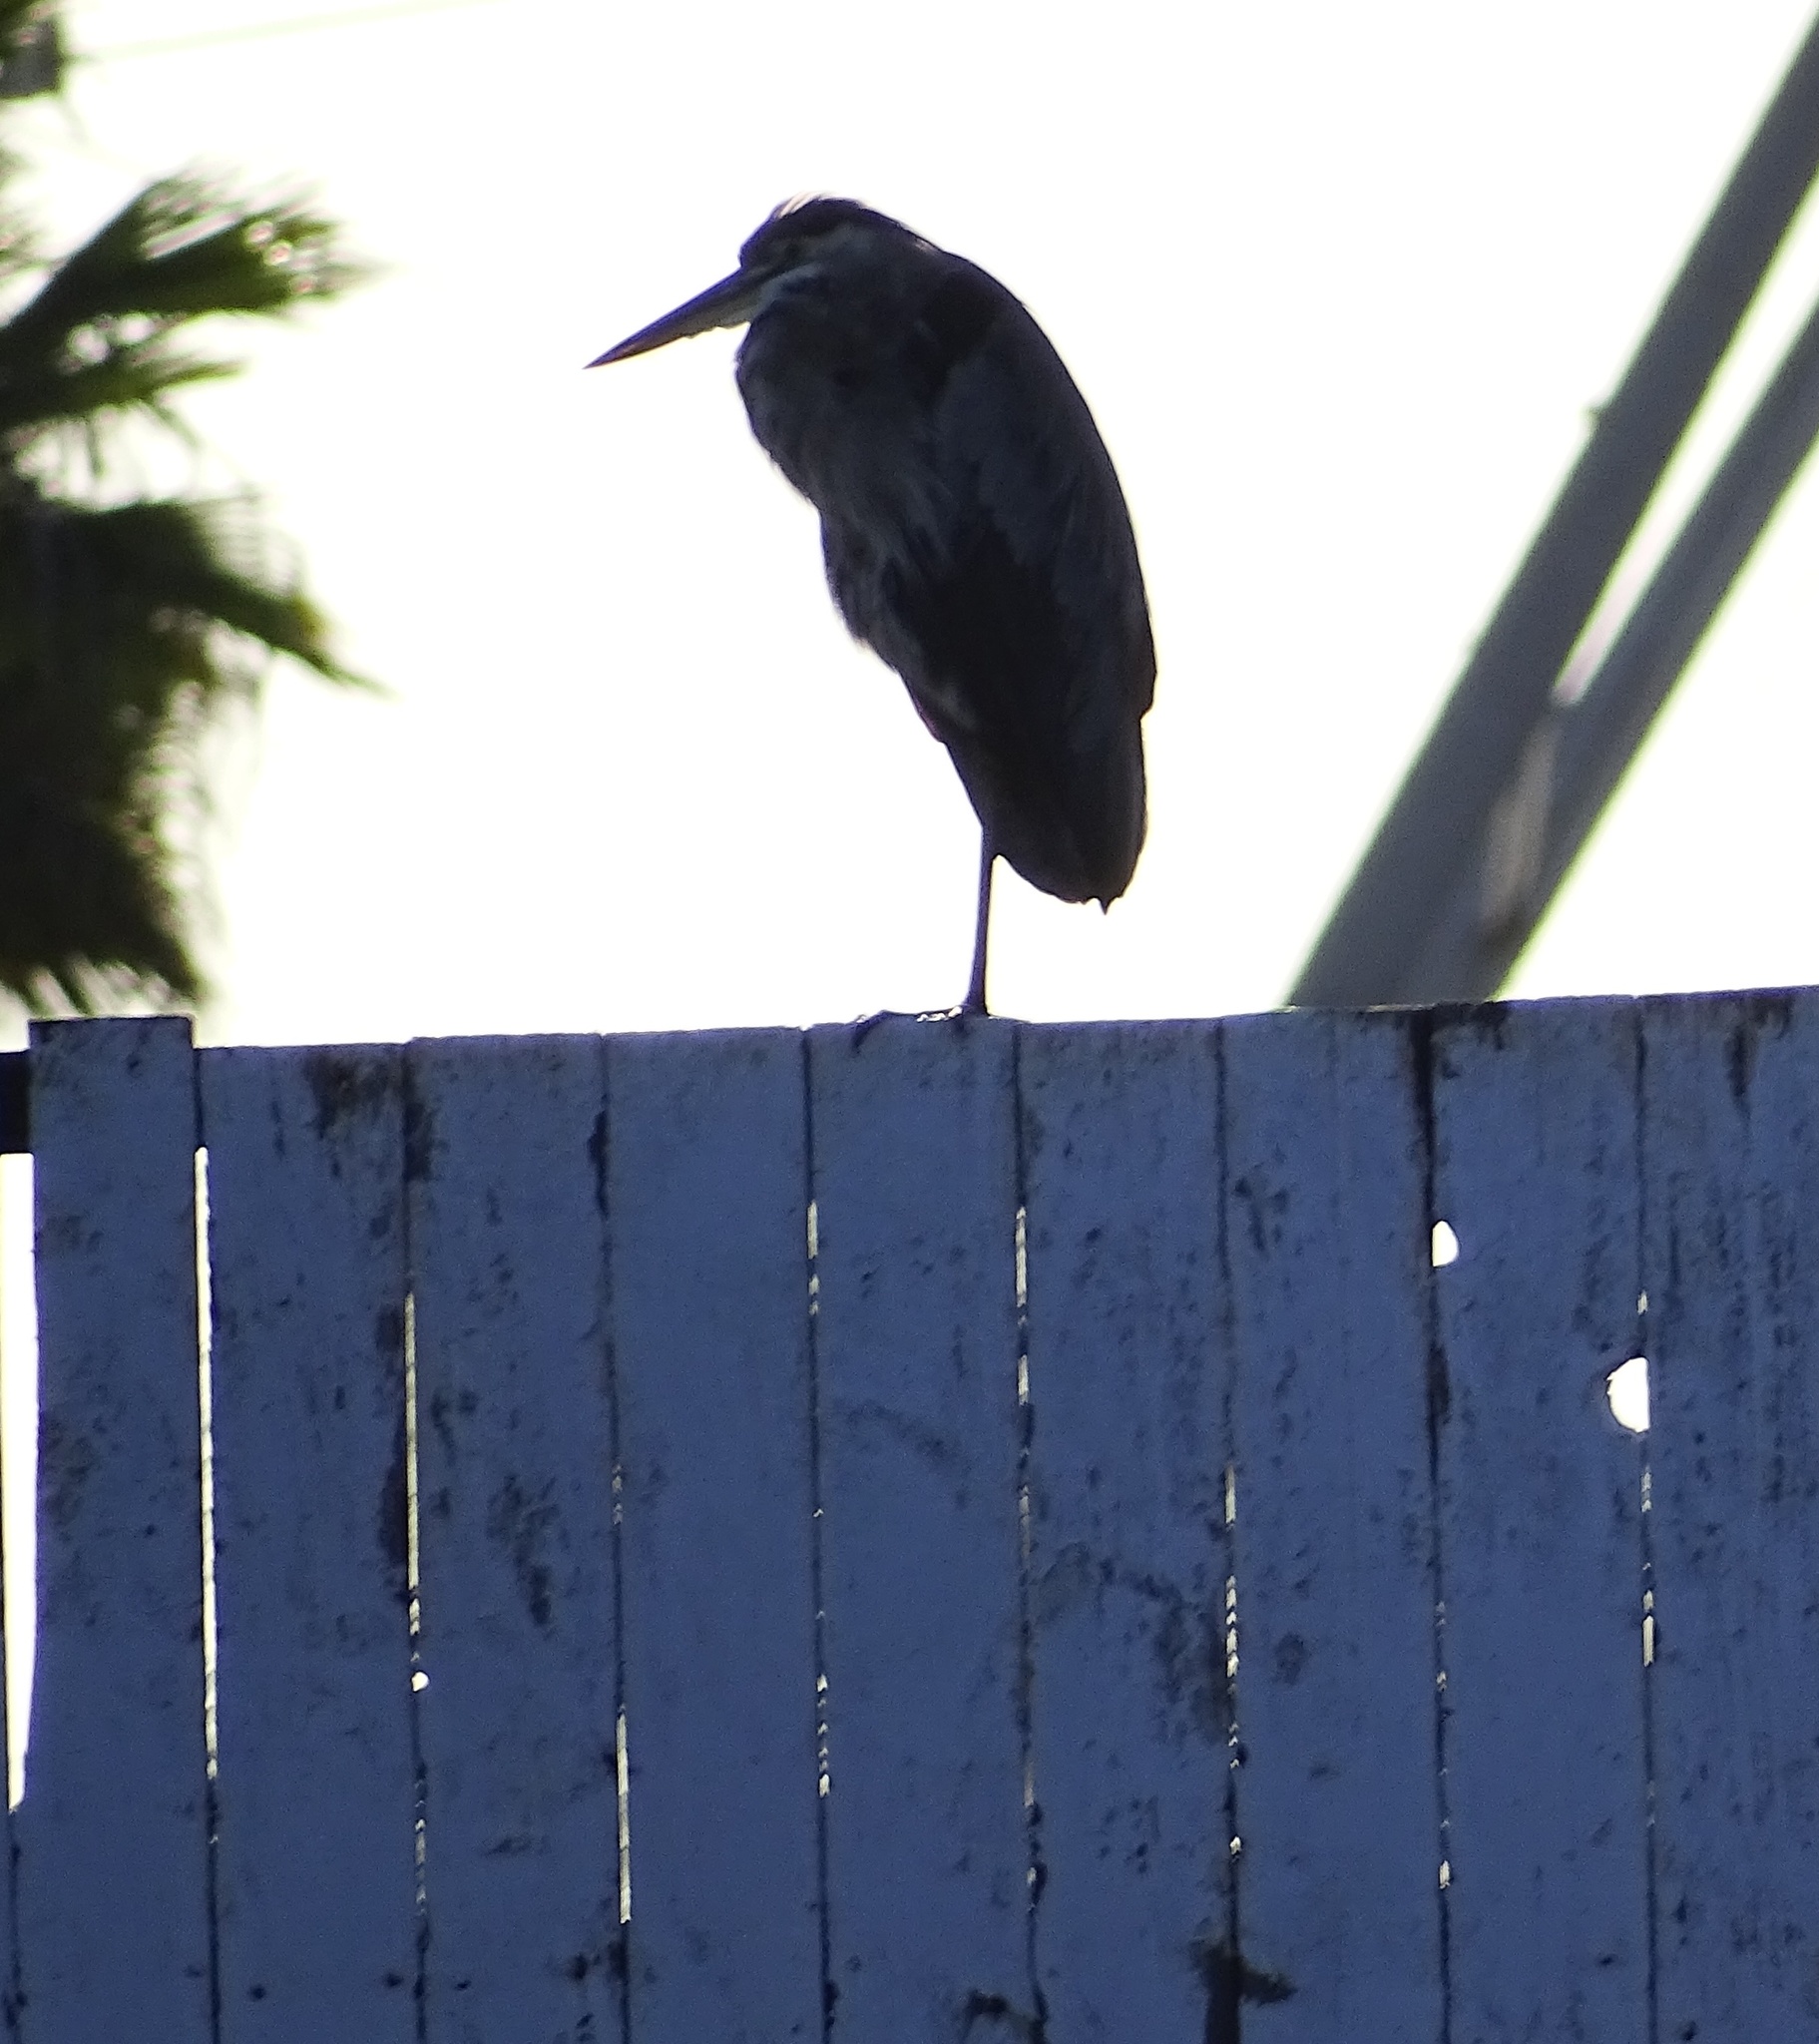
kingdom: Animalia
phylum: Chordata
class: Aves
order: Pelecaniformes
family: Ardeidae
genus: Ardea
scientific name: Ardea herodias
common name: Great blue heron
